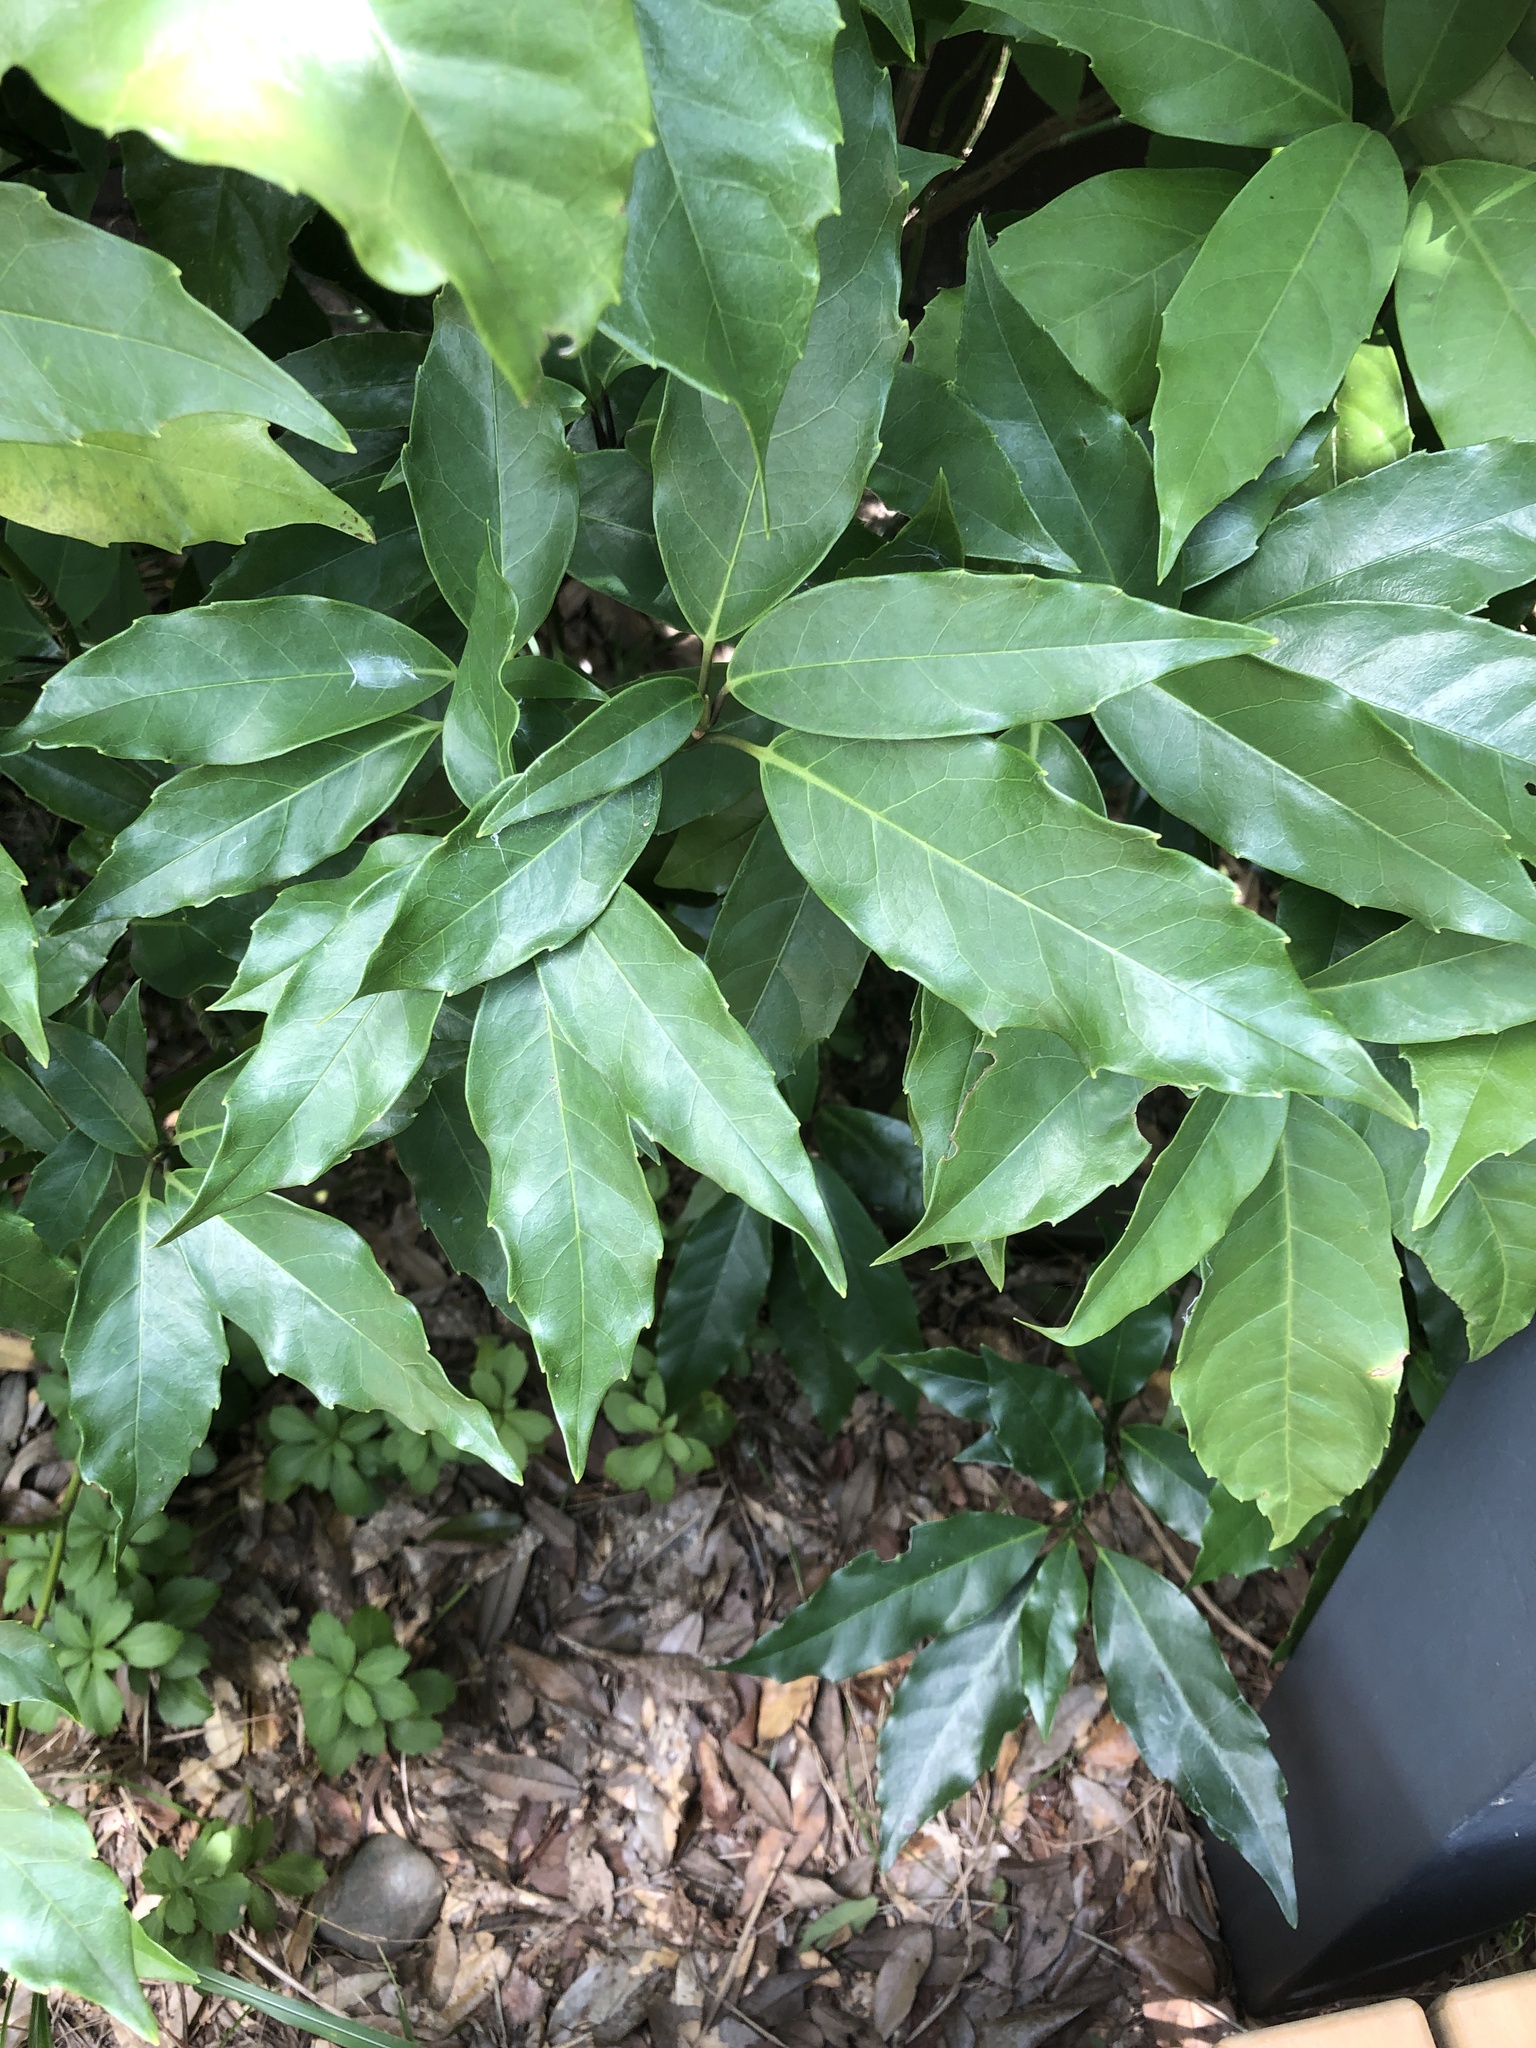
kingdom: Plantae
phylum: Tracheophyta
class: Magnoliopsida
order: Garryales
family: Garryaceae
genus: Aucuba
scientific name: Aucuba japonica
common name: Spotted-laurel
